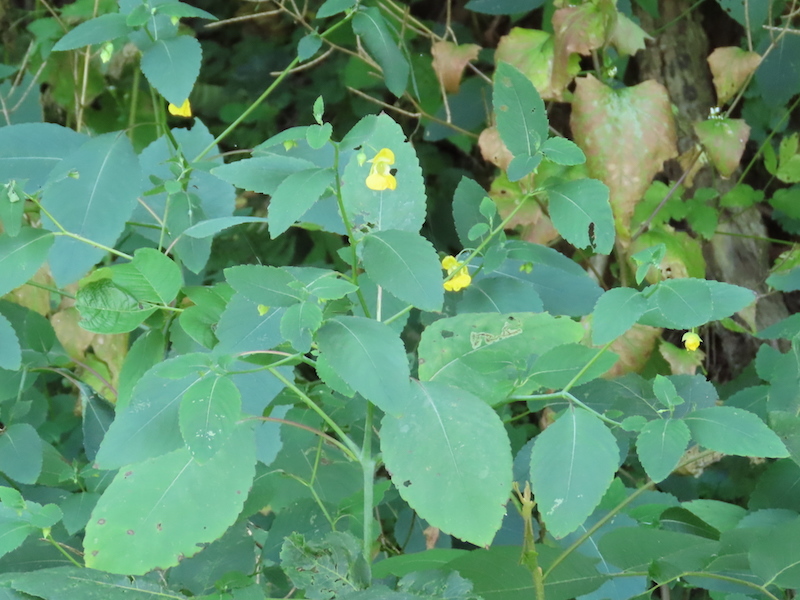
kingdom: Plantae
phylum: Tracheophyta
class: Magnoliopsida
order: Ericales
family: Balsaminaceae
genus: Impatiens
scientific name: Impatiens pallida
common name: Pale snapweed
